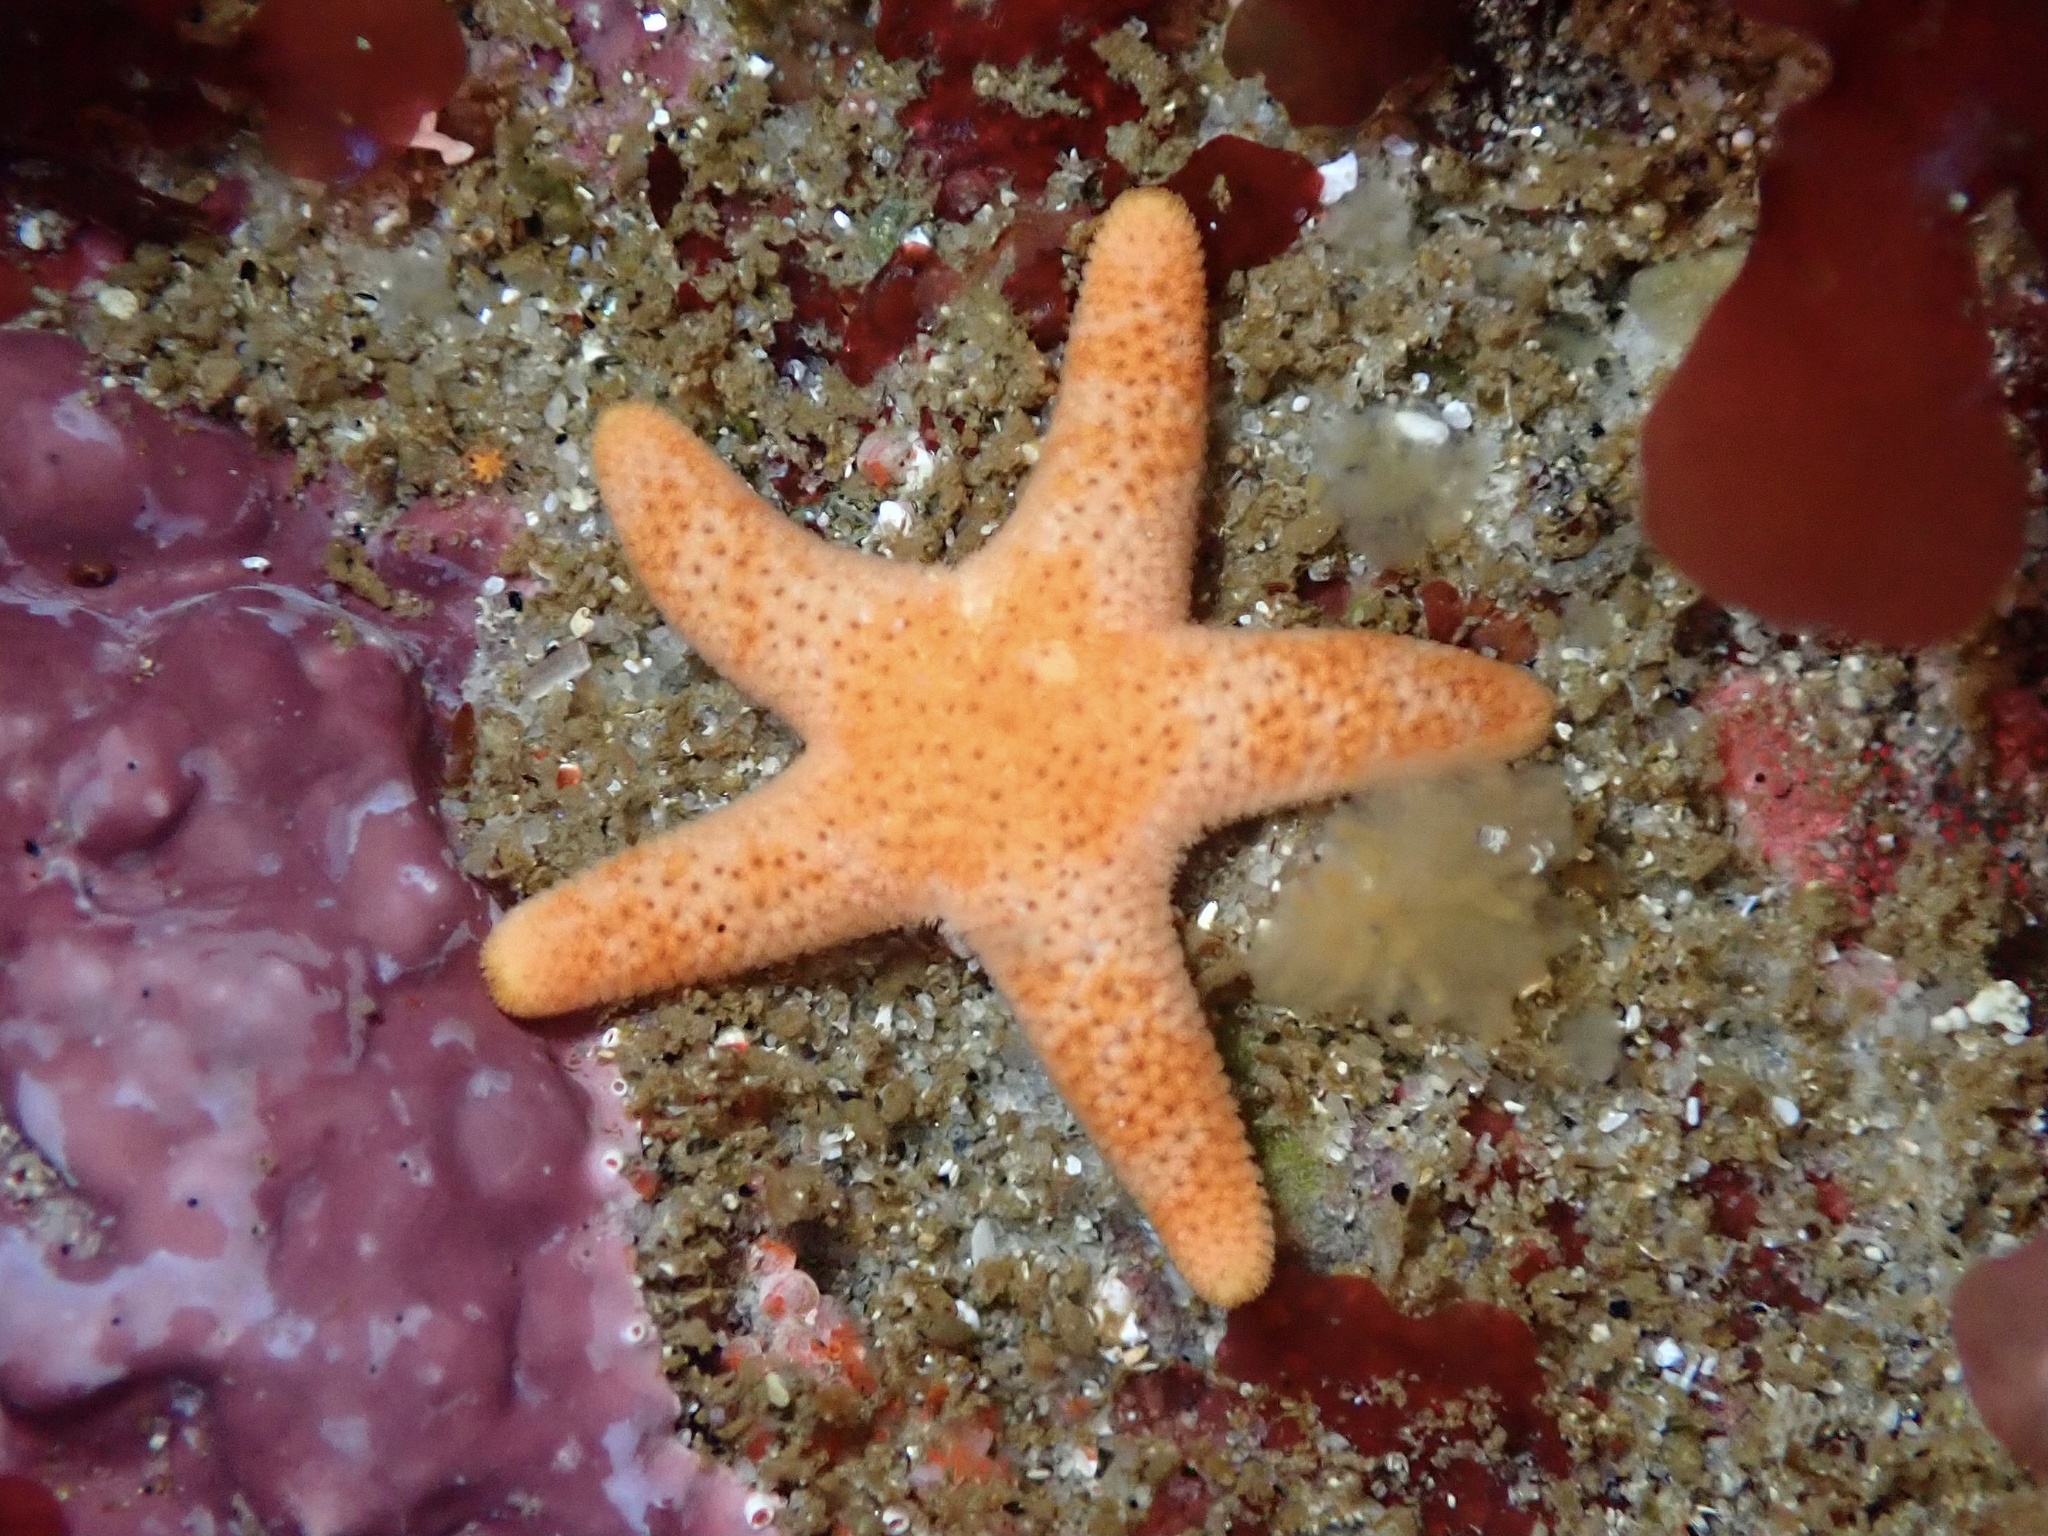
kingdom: Animalia
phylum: Echinodermata
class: Asteroidea
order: Spinulosida
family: Echinasteridae
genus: Henricia
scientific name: Henricia pumila
